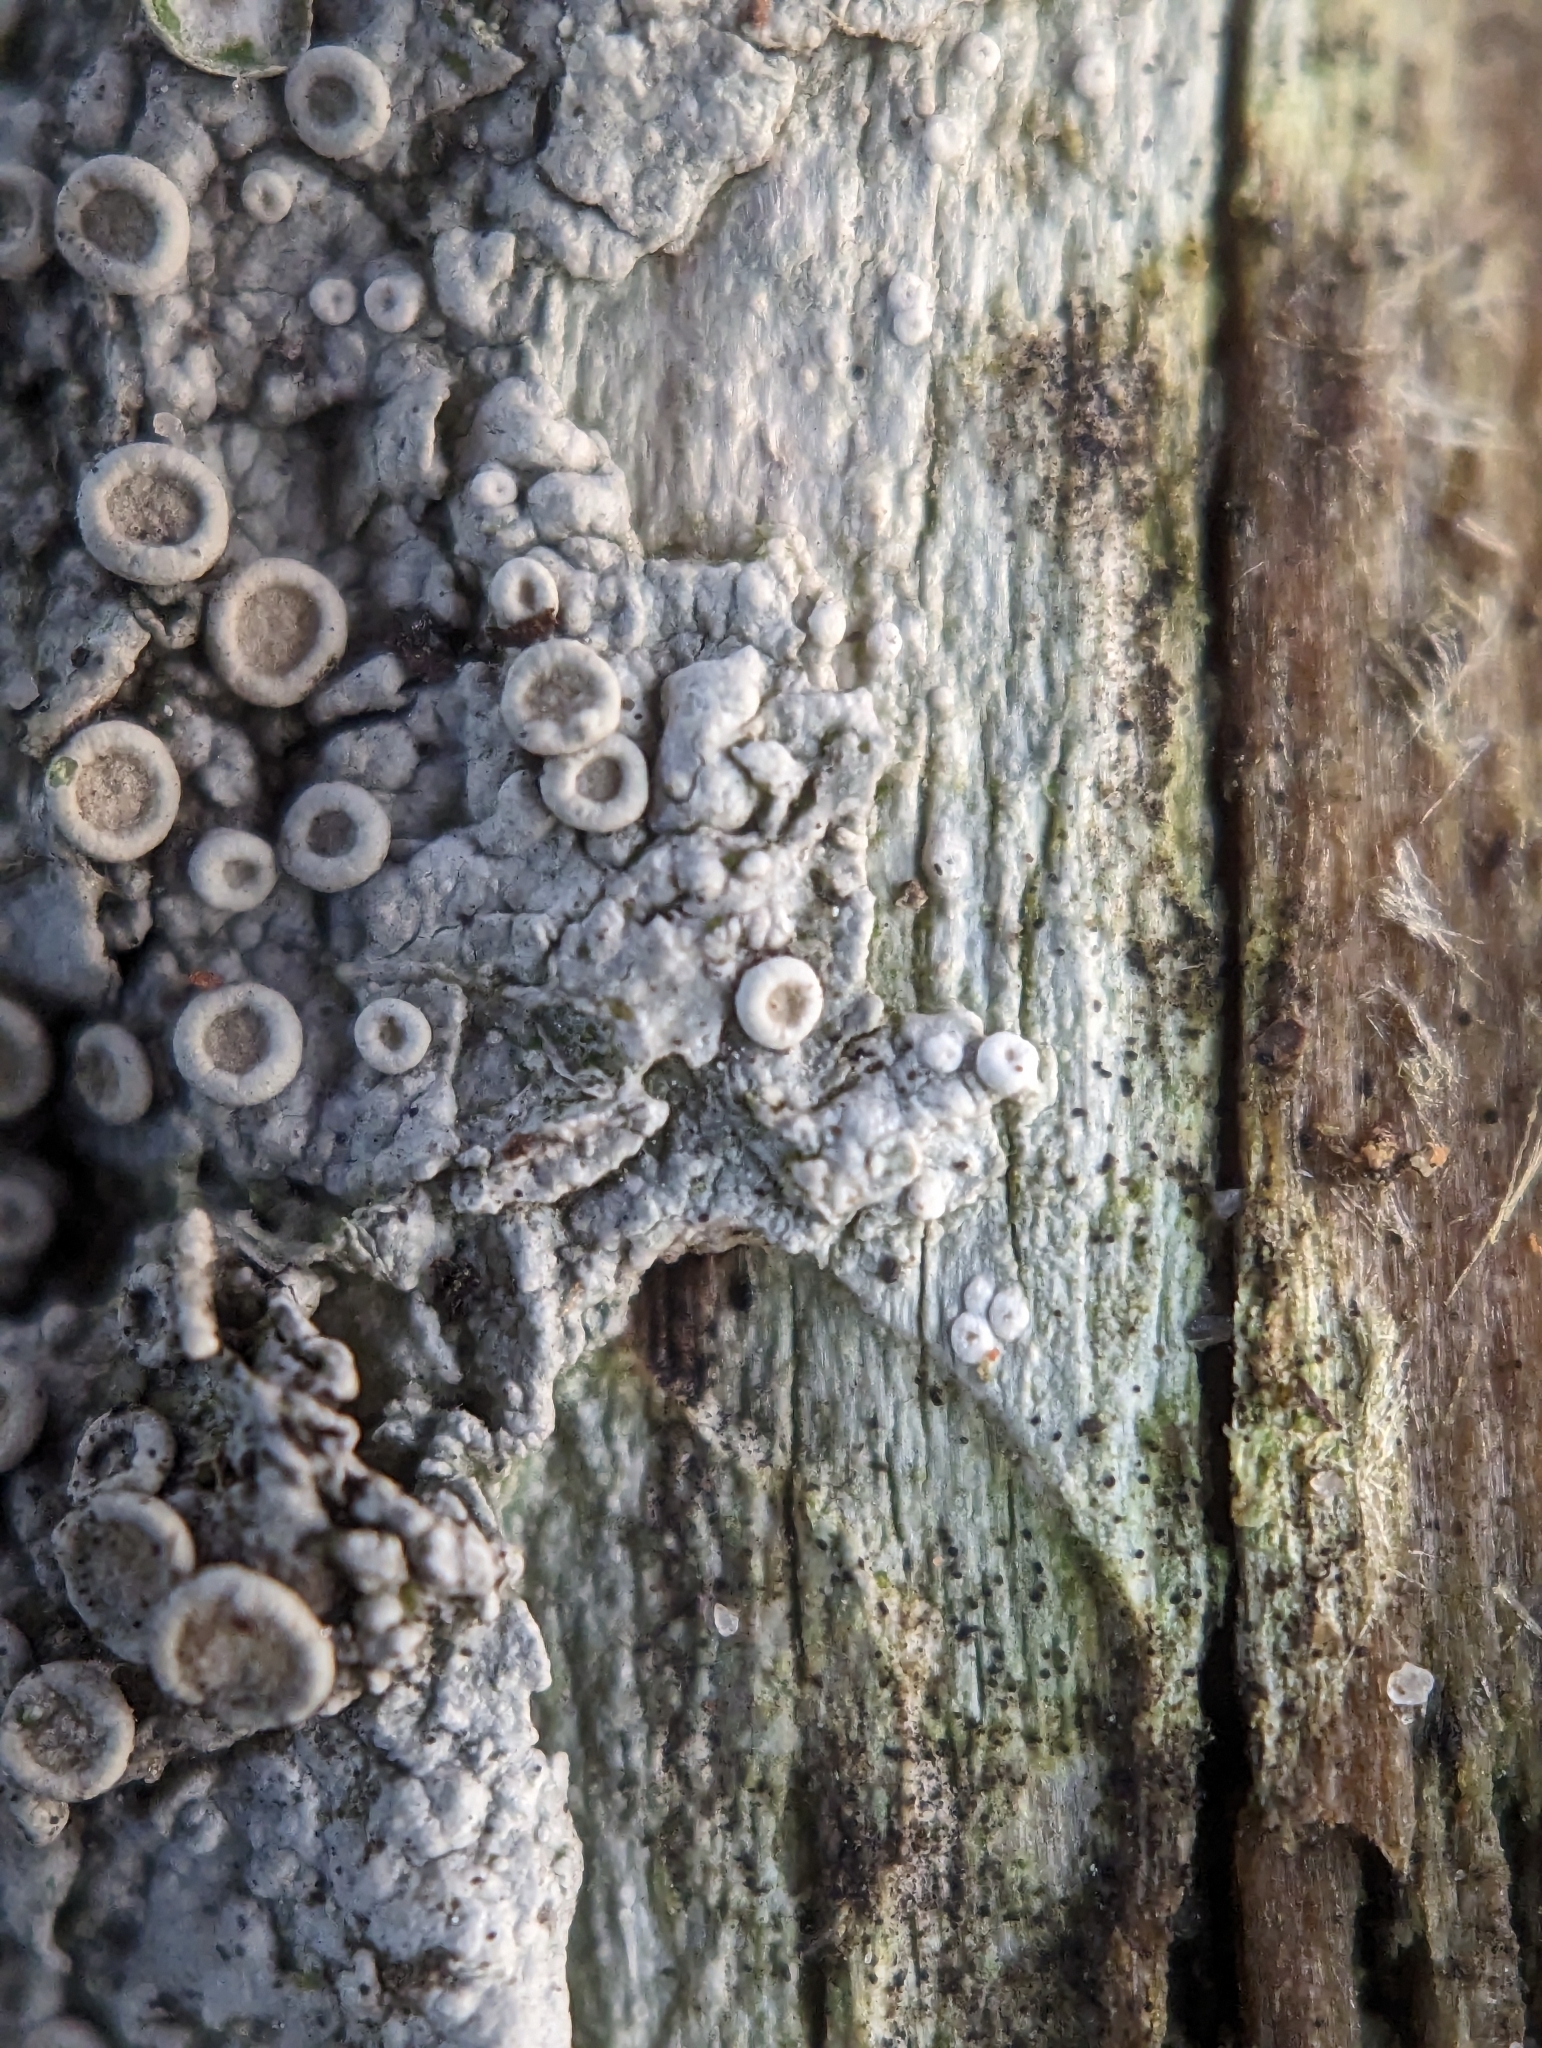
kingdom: Fungi
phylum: Ascomycota
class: Lecanoromycetes
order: Pertusariales
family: Ochrolechiaceae
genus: Ochrolechia
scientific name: Ochrolechia pseudopallescens
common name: Pallid saucer lichen
